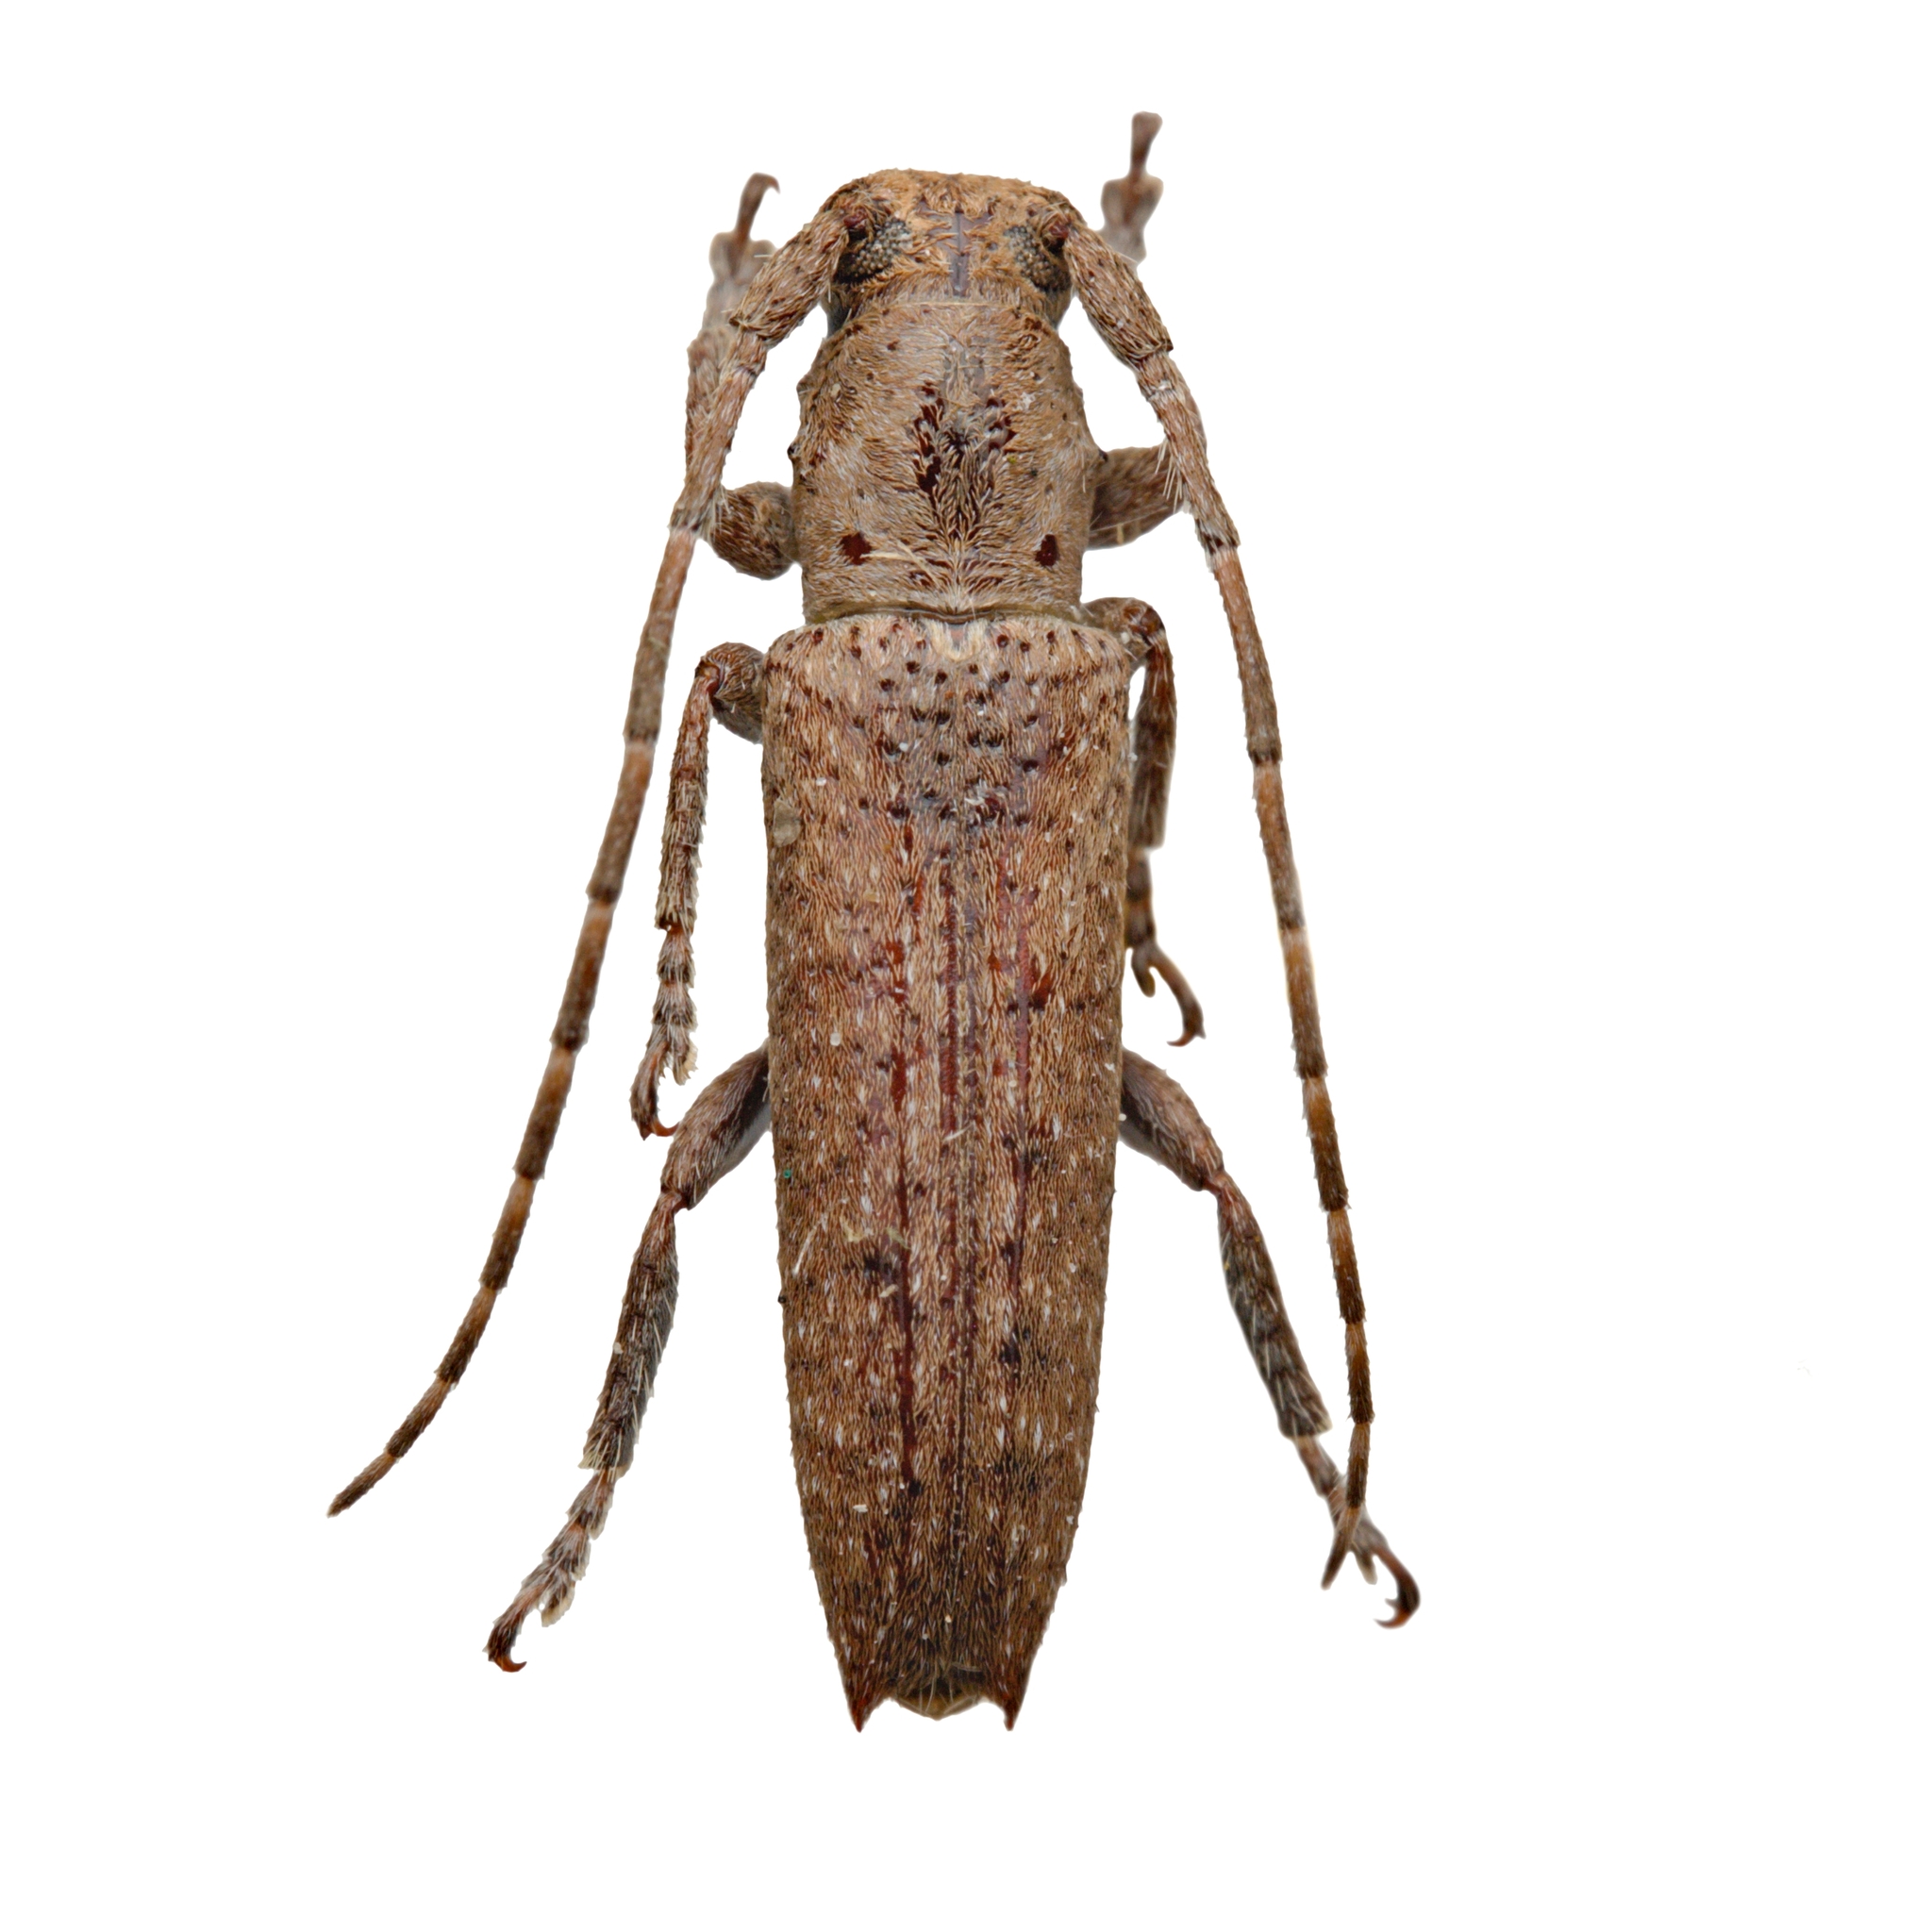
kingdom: Animalia
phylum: Arthropoda
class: Insecta
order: Coleoptera
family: Cerambycidae
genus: Ataxia
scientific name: Ataxia spinicauda
